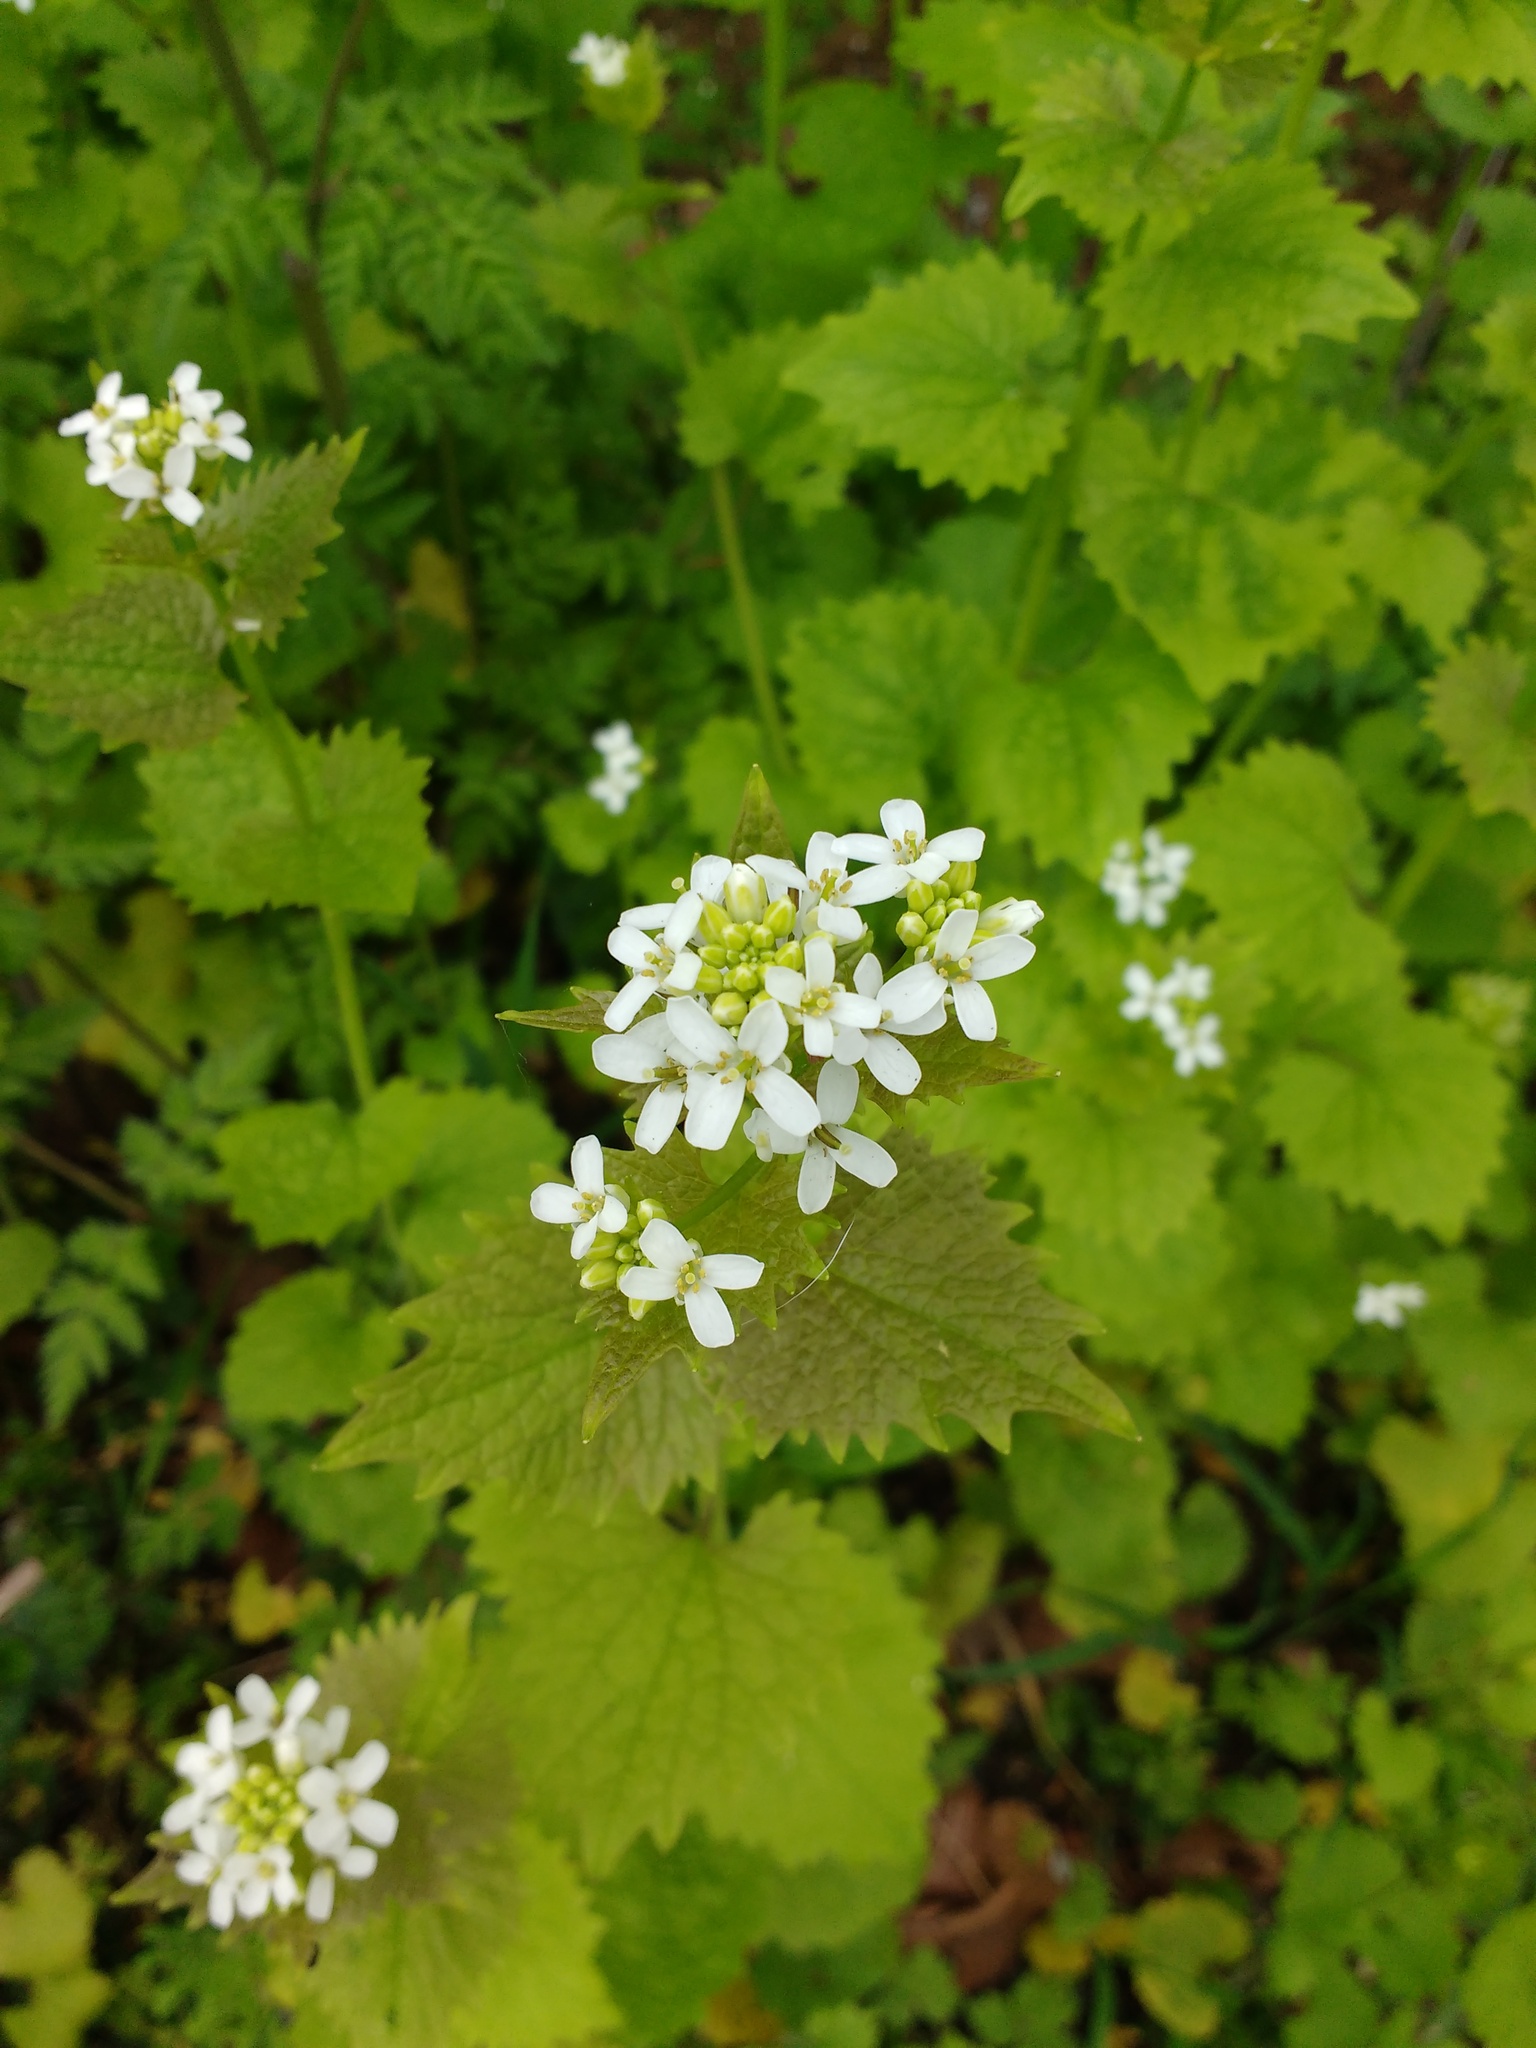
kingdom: Plantae
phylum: Tracheophyta
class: Magnoliopsida
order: Brassicales
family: Brassicaceae
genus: Alliaria
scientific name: Alliaria petiolata
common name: Garlic mustard
